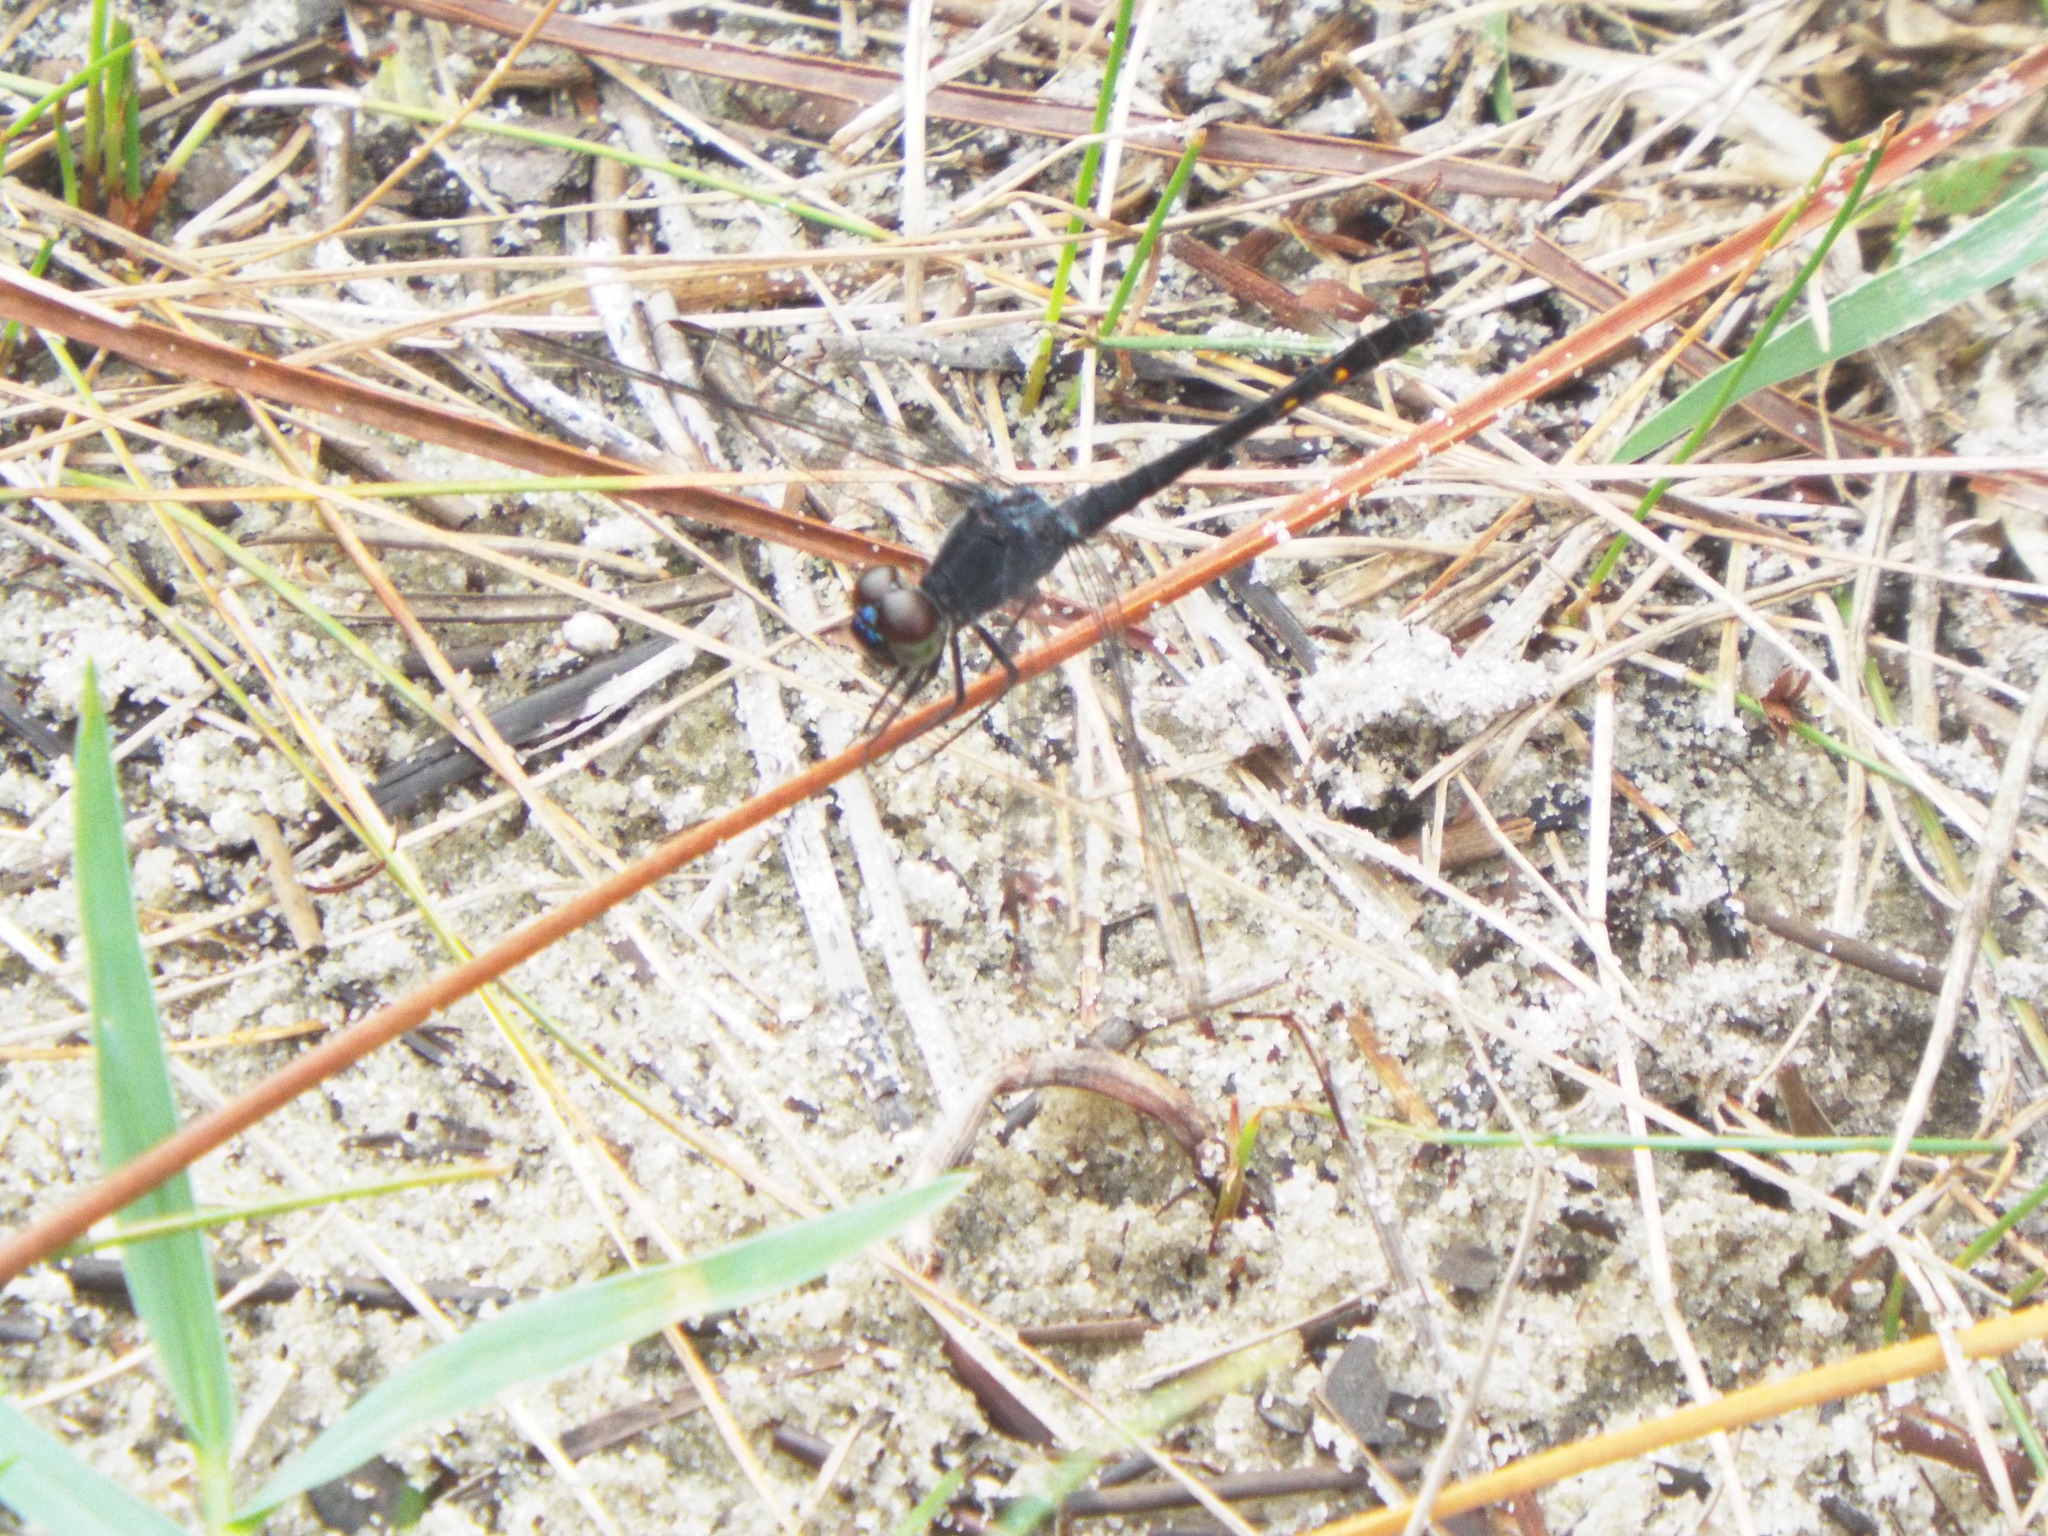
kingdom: Animalia
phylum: Arthropoda
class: Insecta
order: Odonata
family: Libellulidae
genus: Erythrodiplax
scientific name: Erythrodiplax berenice
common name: Seaside dragonlet
